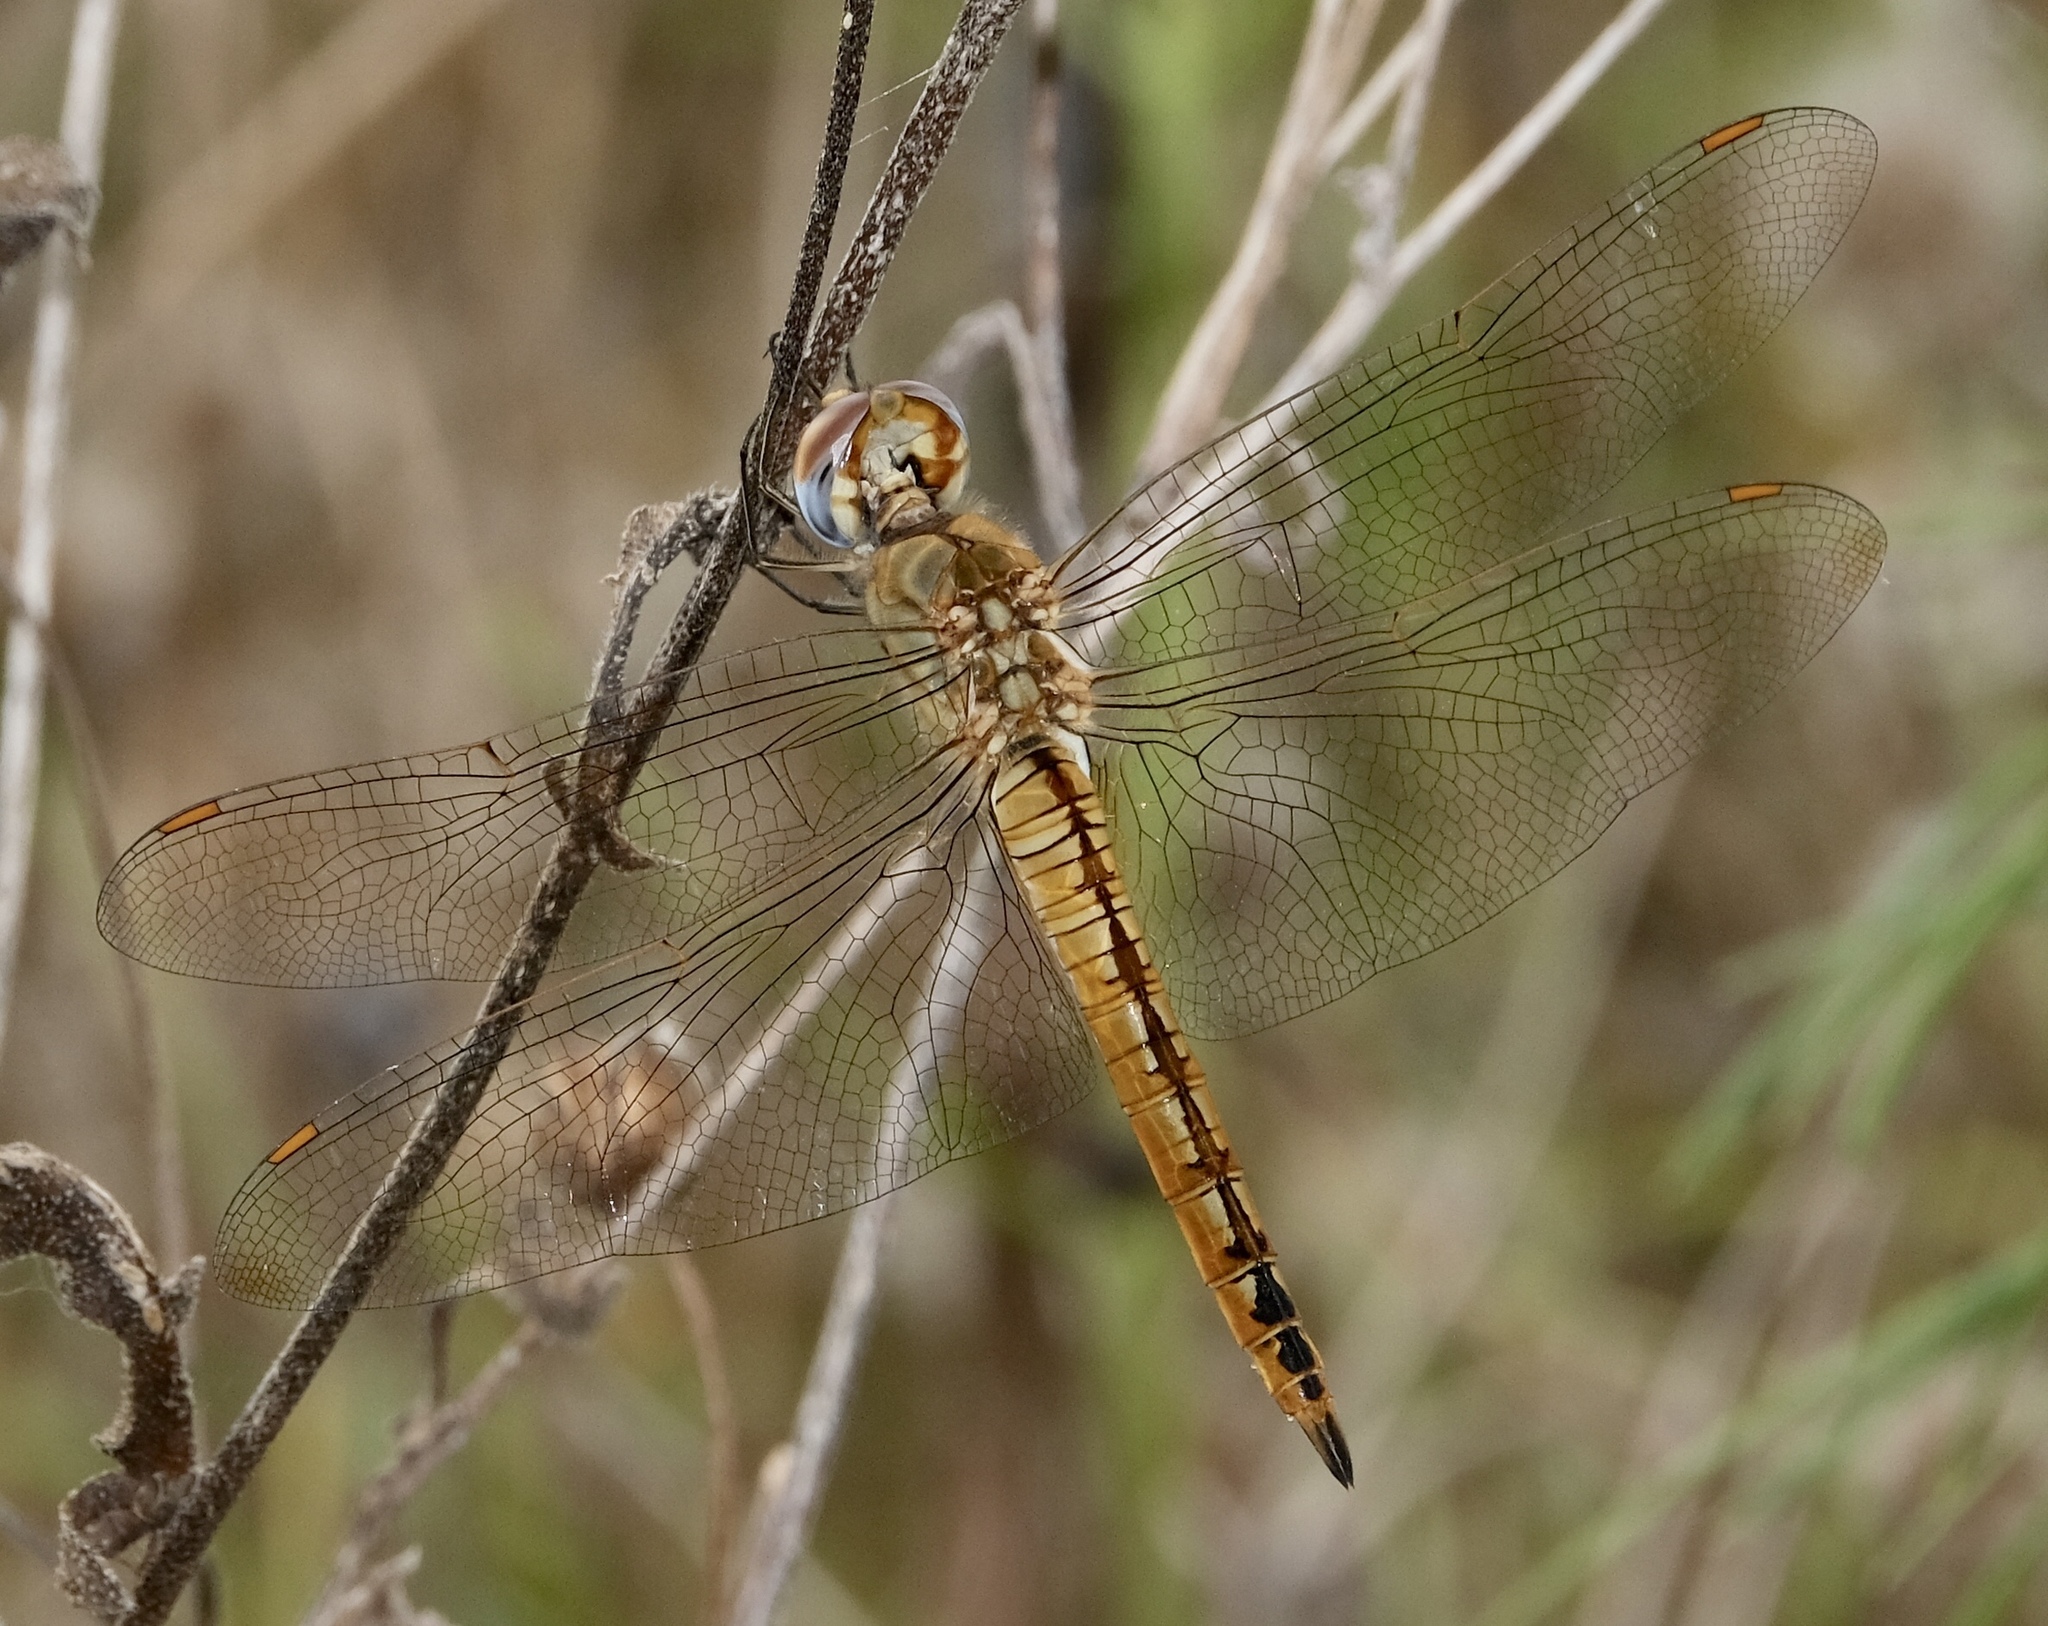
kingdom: Animalia
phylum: Arthropoda
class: Insecta
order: Odonata
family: Libellulidae
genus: Pantala
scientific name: Pantala flavescens
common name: Wandering glider
